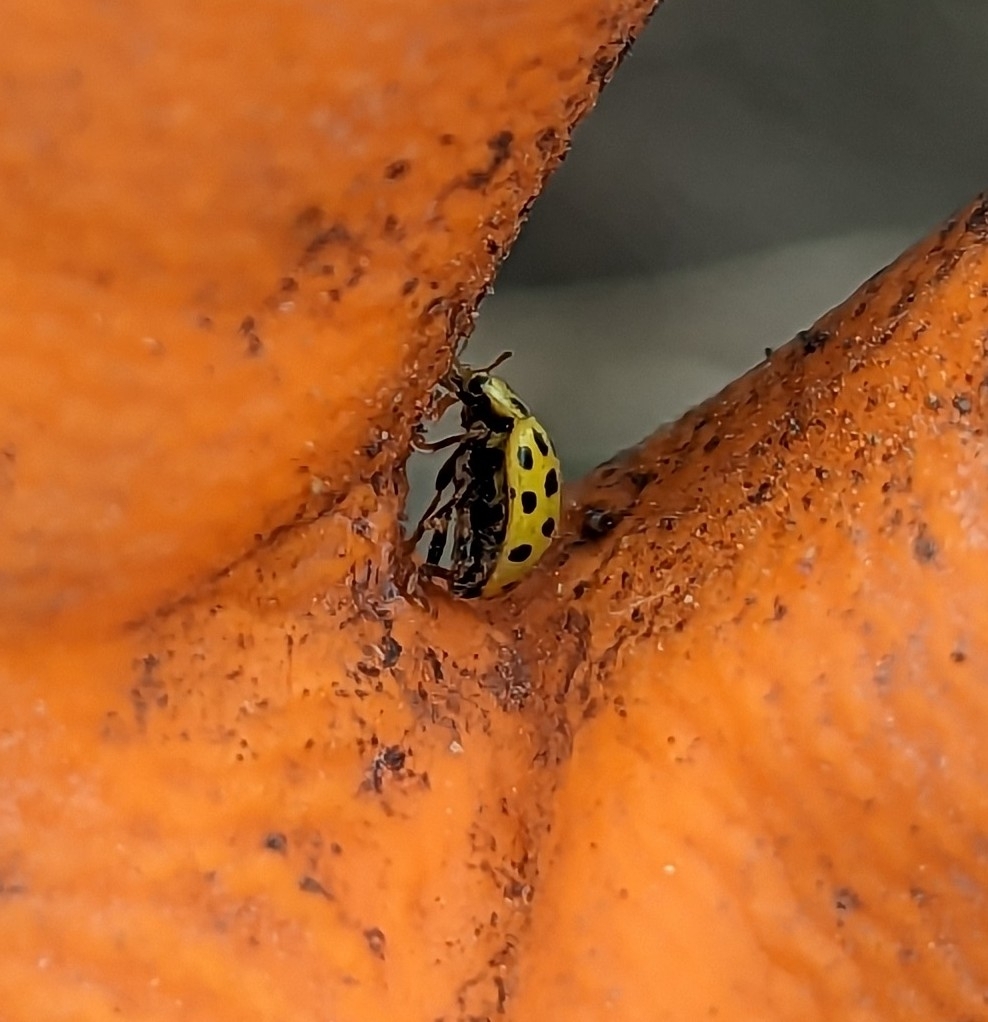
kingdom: Animalia
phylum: Arthropoda
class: Insecta
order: Coleoptera
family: Coccinellidae
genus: Psyllobora
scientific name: Psyllobora vigintiduopunctata
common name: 22-spot ladybird
